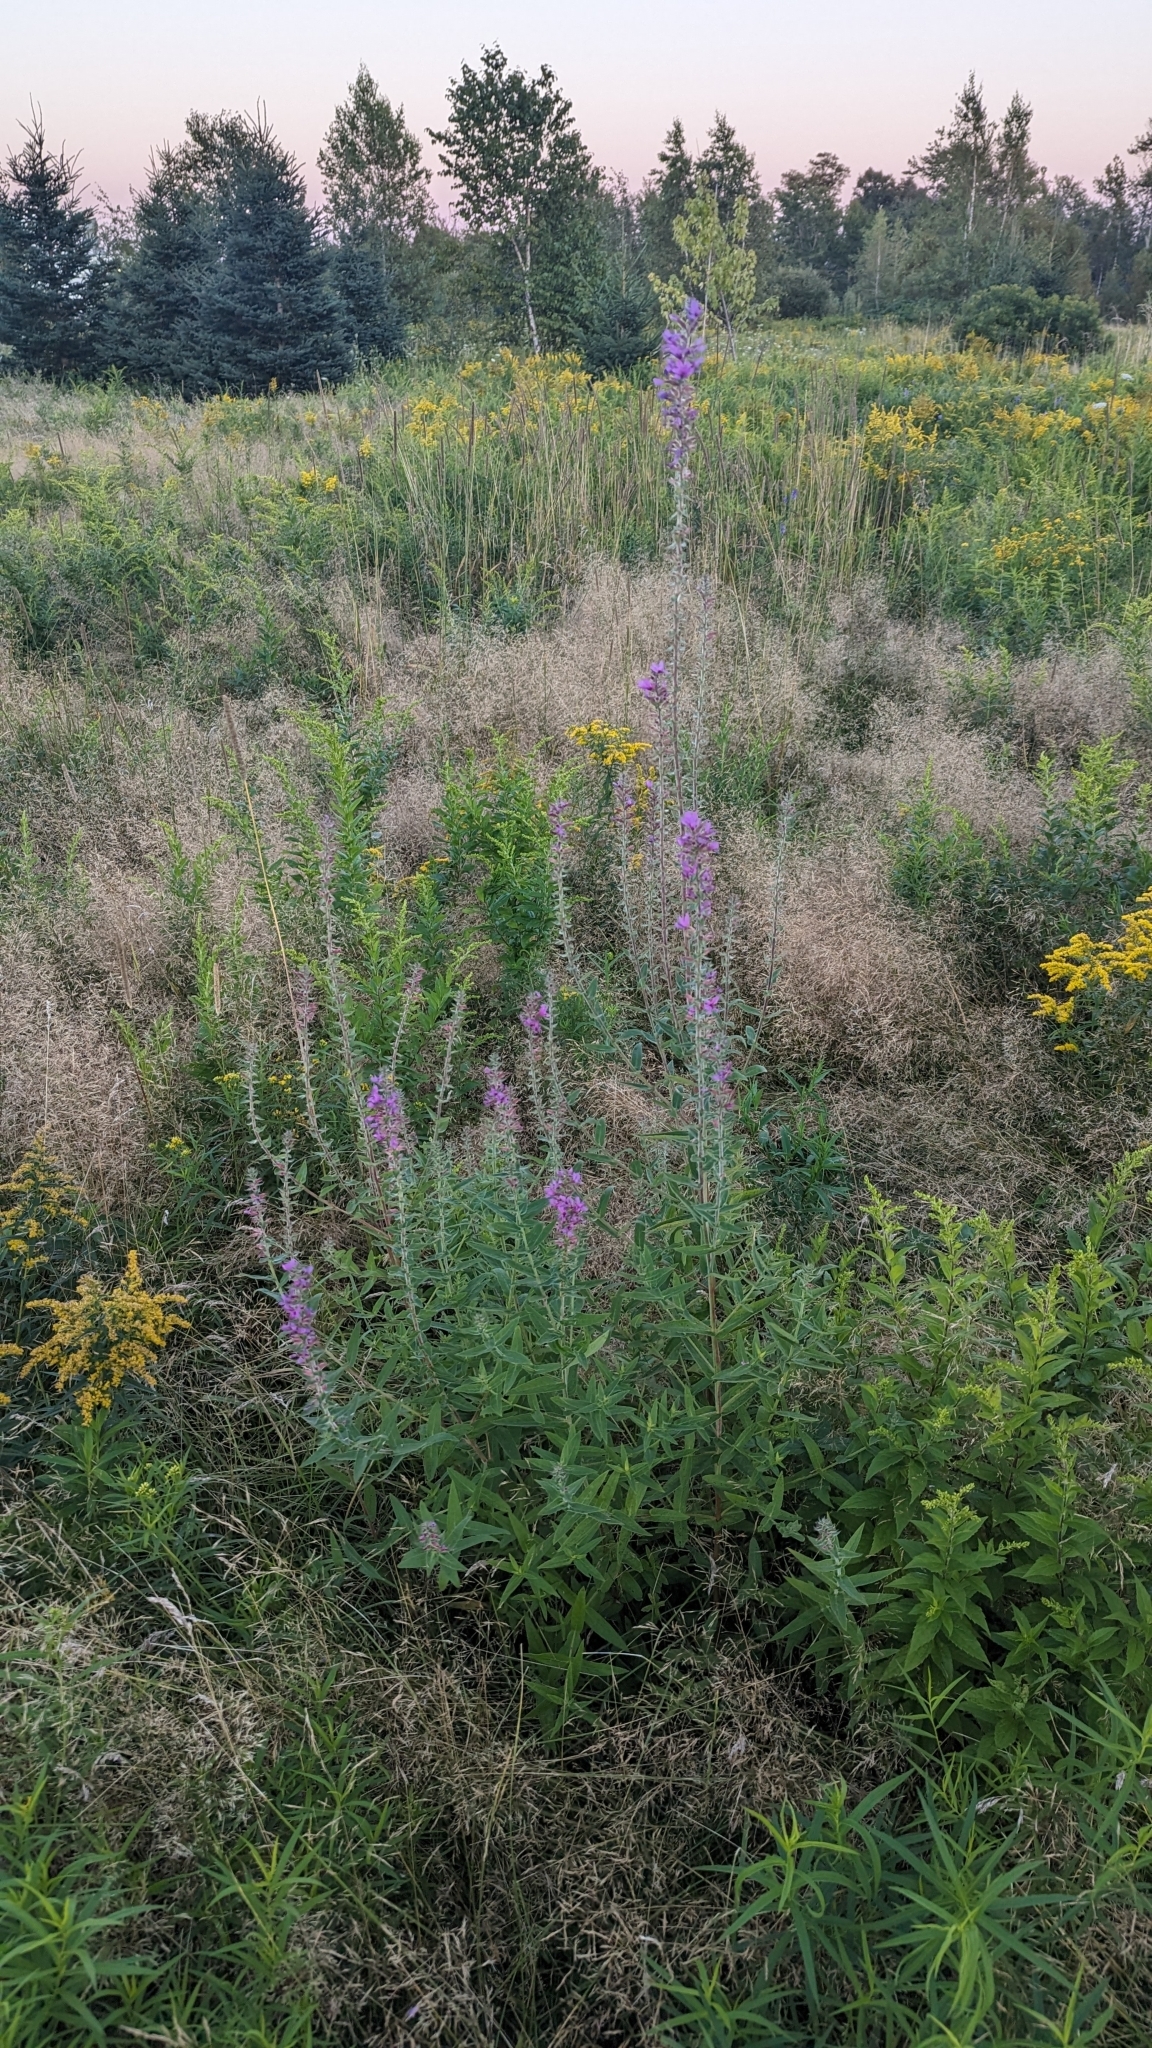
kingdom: Plantae
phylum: Tracheophyta
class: Magnoliopsida
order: Myrtales
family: Lythraceae
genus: Lythrum
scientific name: Lythrum salicaria
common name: Purple loosestrife
